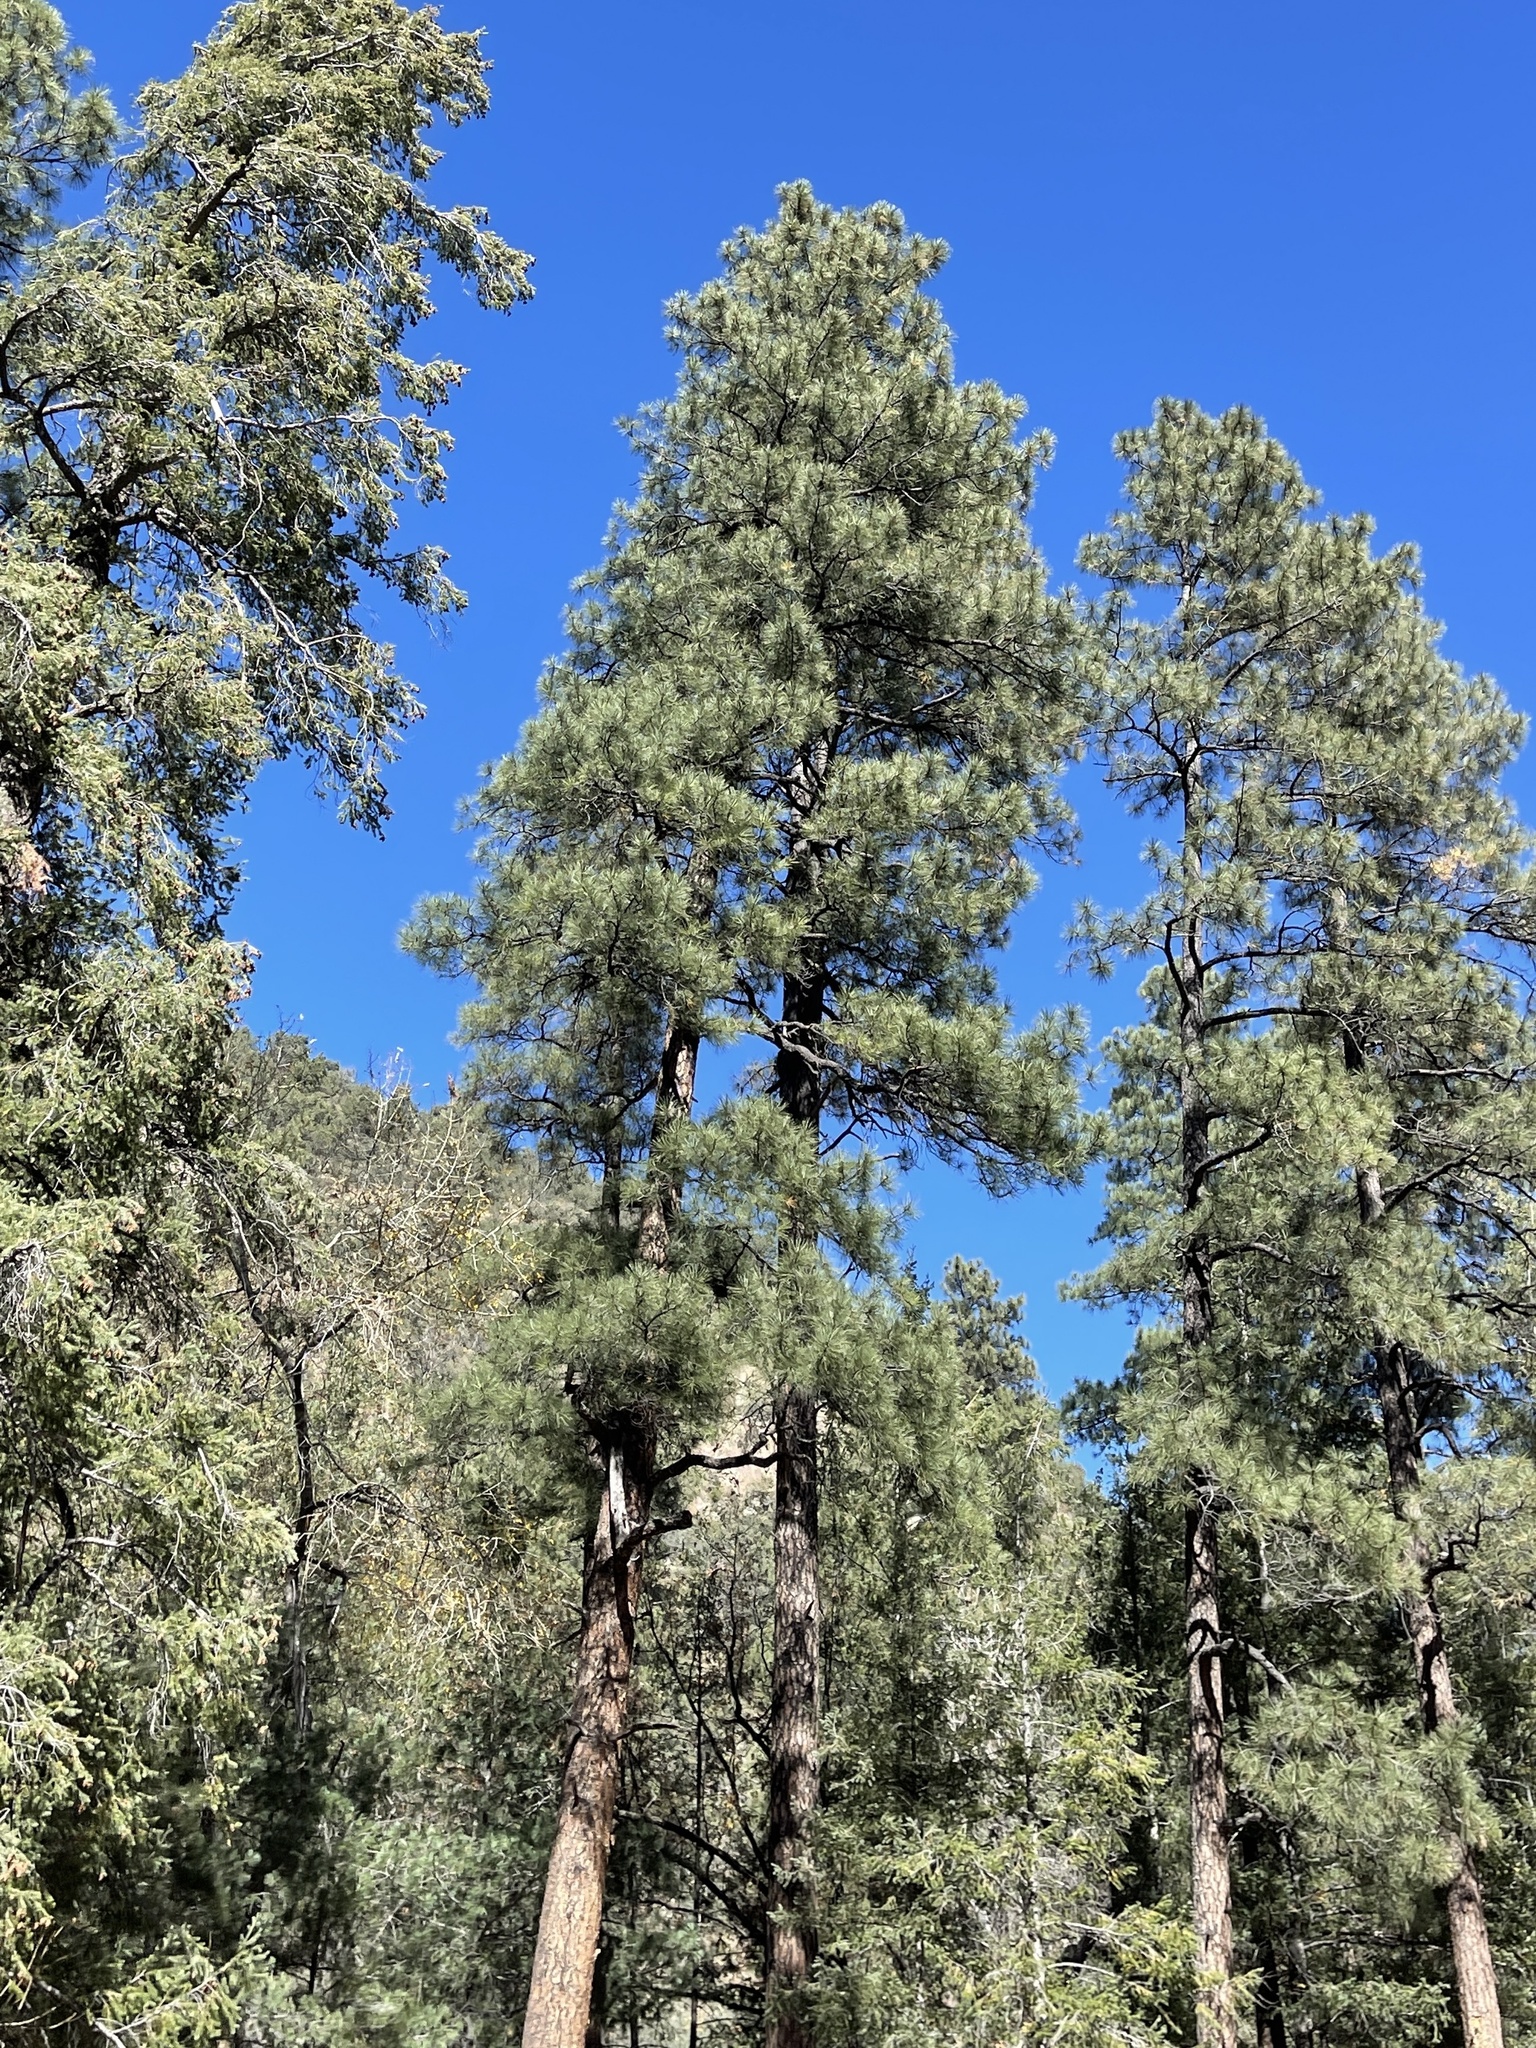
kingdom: Plantae
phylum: Tracheophyta
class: Pinopsida
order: Pinales
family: Pinaceae
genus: Pinus
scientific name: Pinus ponderosa
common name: Western yellow-pine
